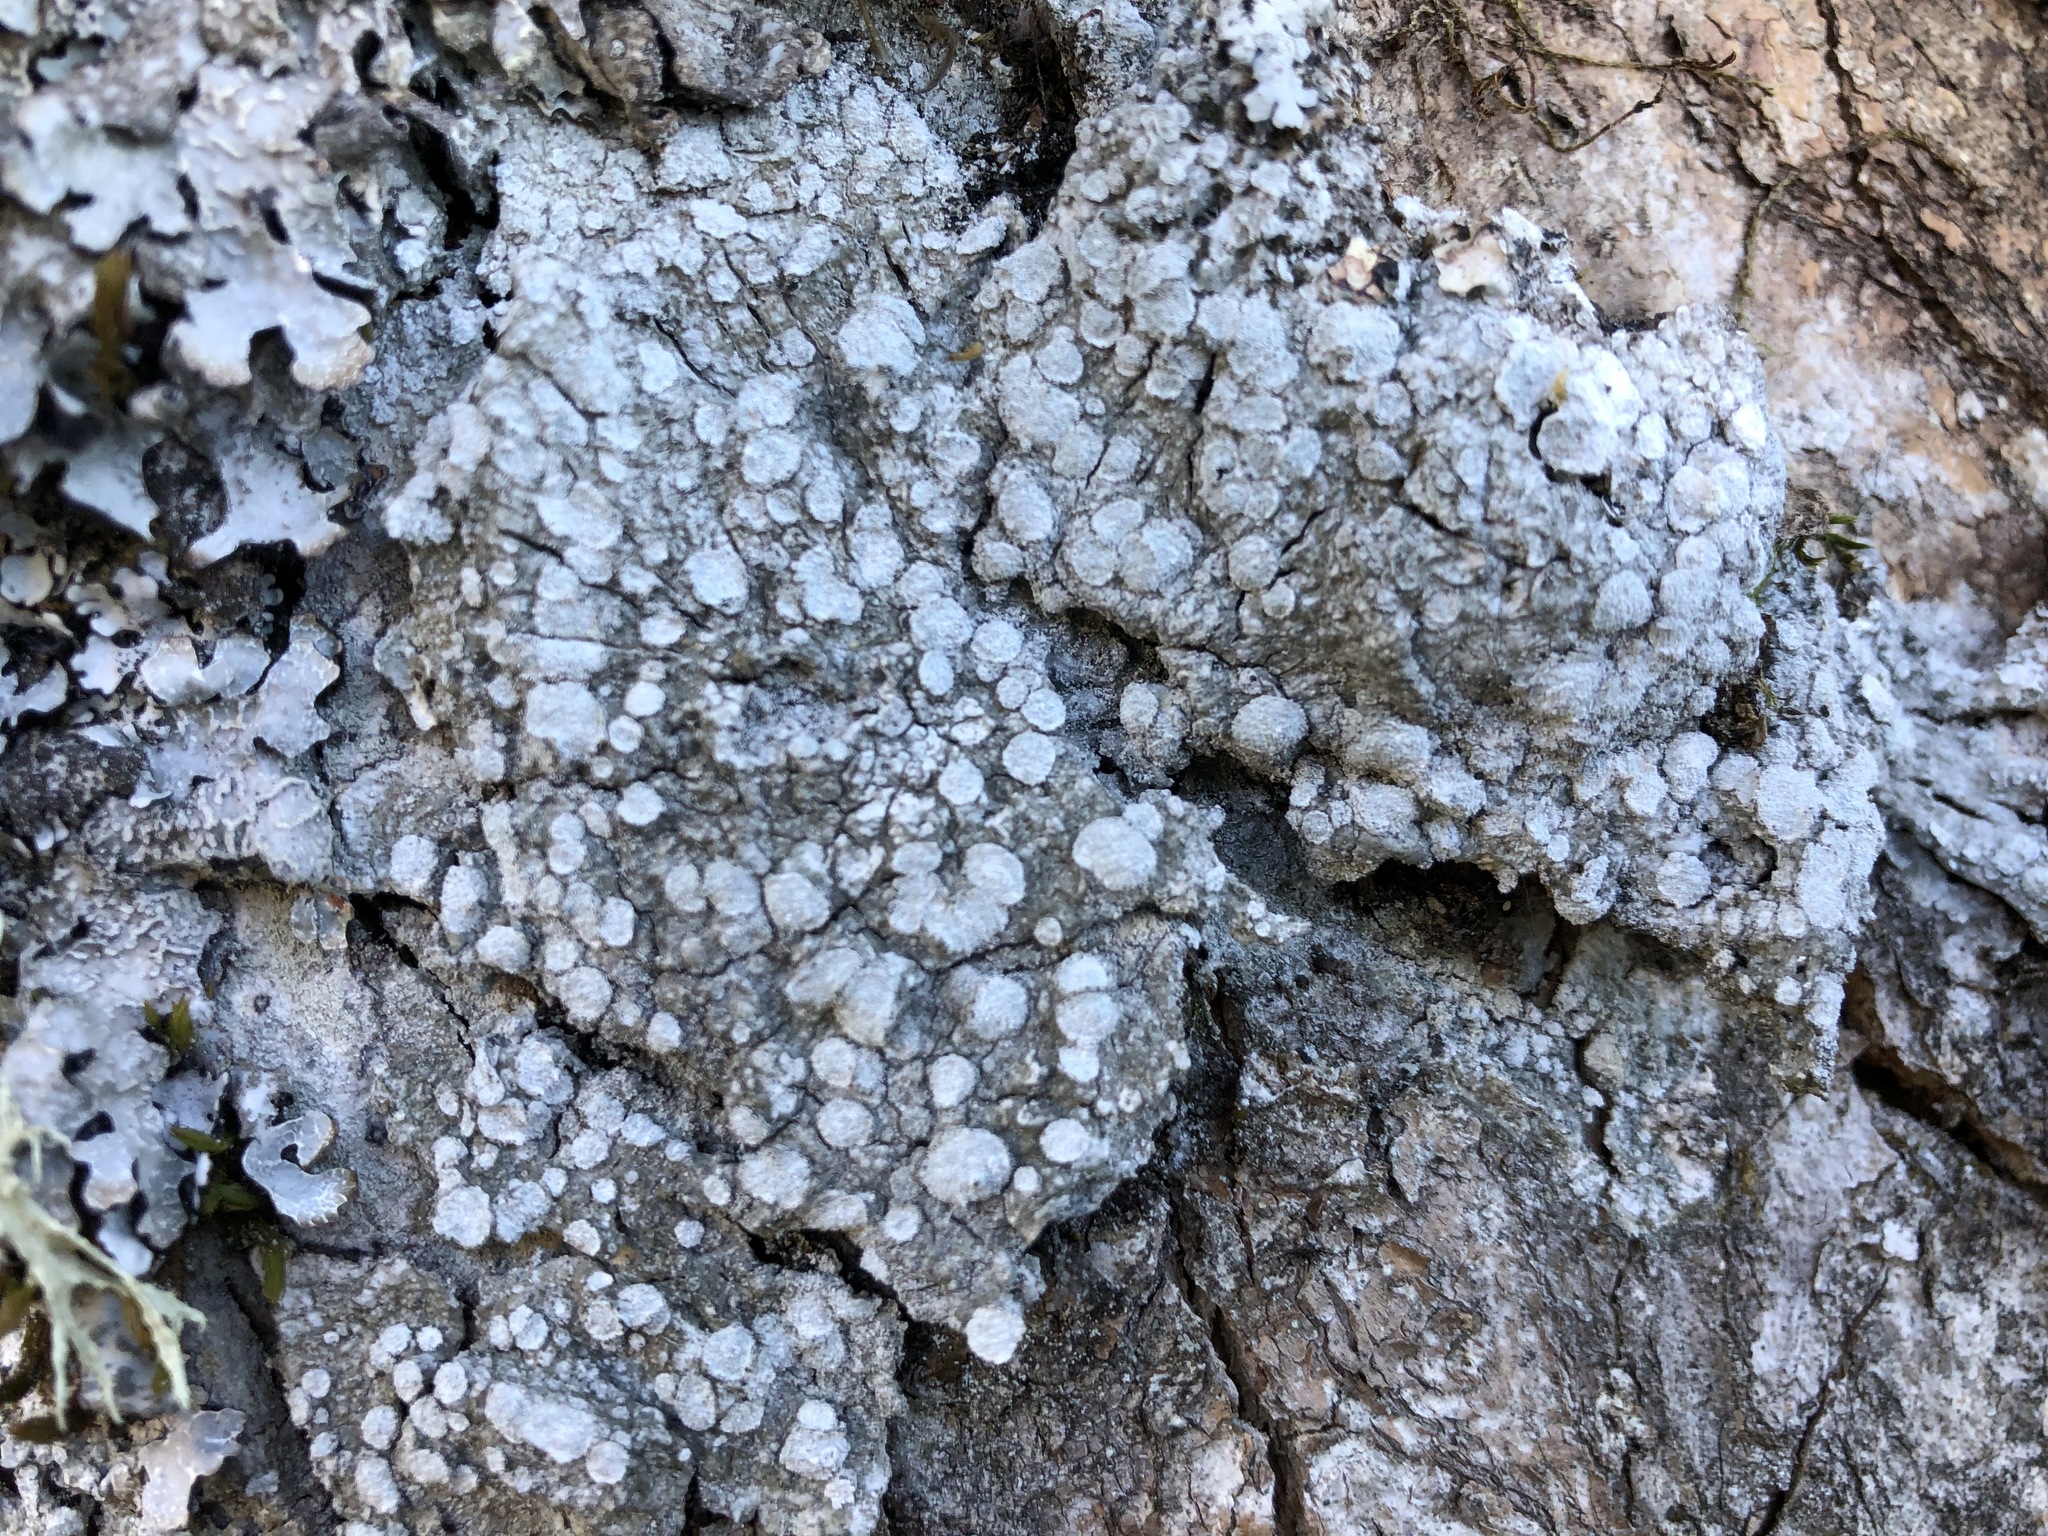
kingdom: Fungi
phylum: Ascomycota
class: Lecanoromycetes
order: Pertusariales
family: Pertusariaceae
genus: Lepra
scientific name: Lepra albescens
